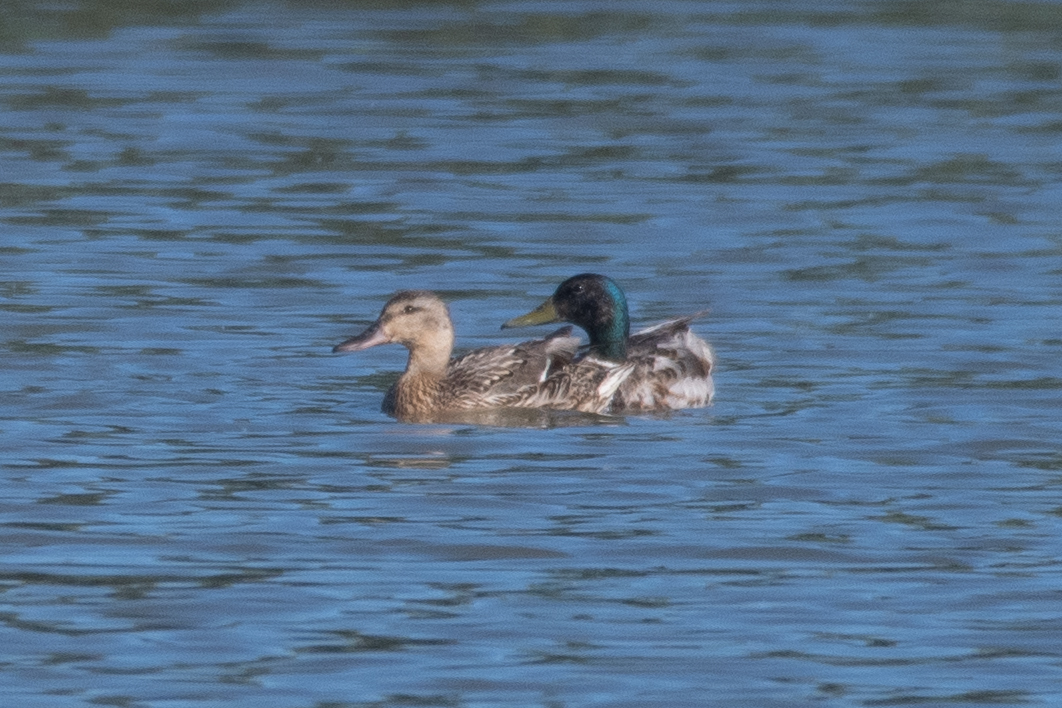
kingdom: Animalia
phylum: Chordata
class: Aves
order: Anseriformes
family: Anatidae
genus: Anas
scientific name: Anas platyrhynchos
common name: Mallard
